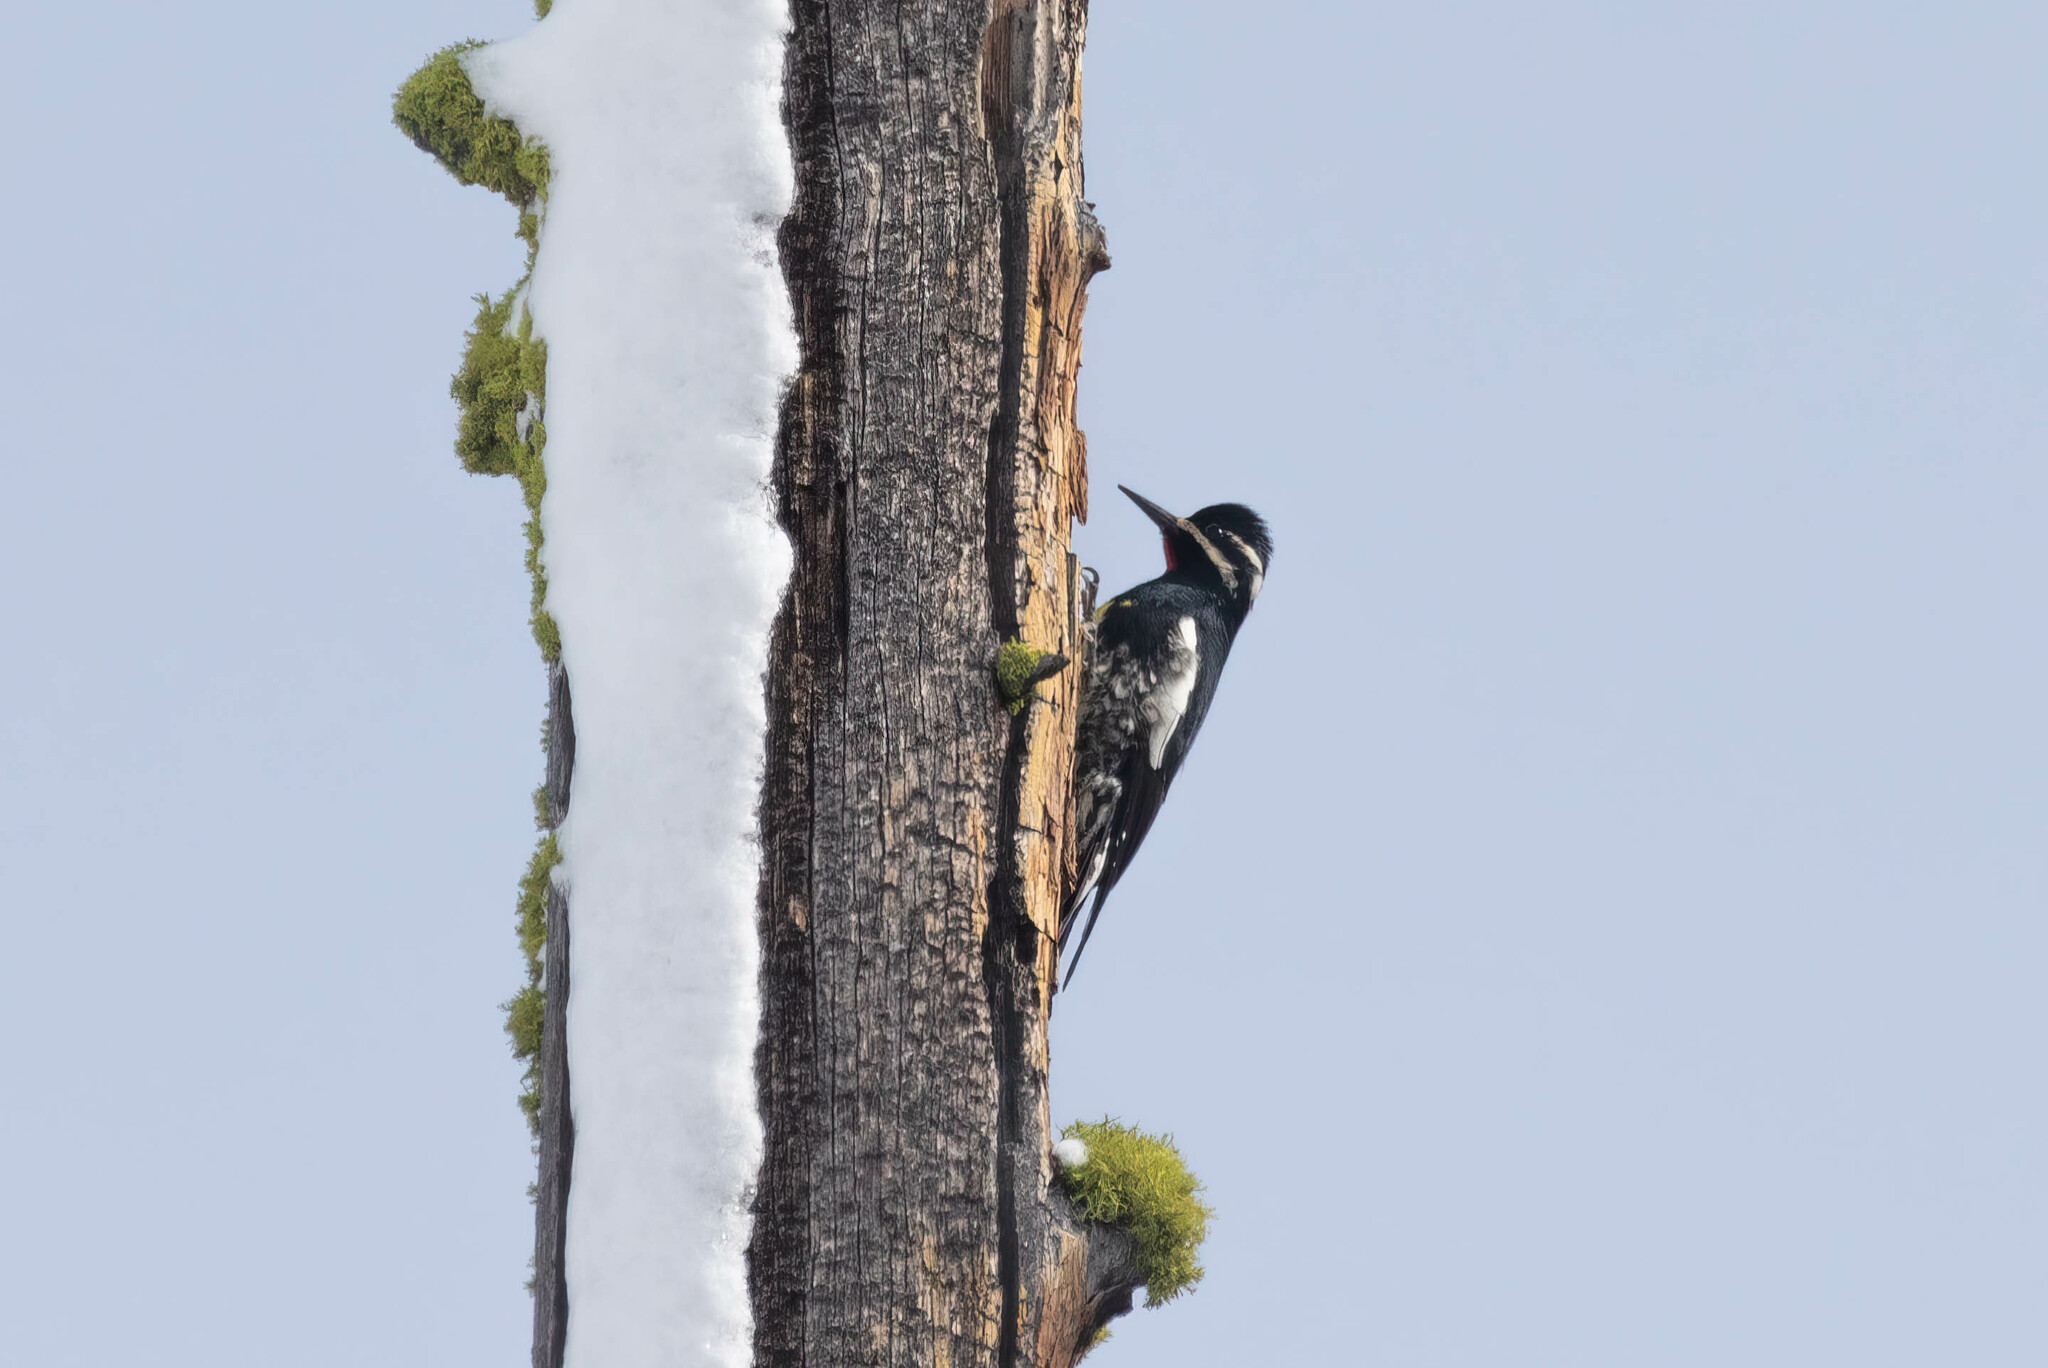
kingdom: Animalia
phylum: Chordata
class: Aves
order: Piciformes
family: Picidae
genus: Sphyrapicus
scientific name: Sphyrapicus thyroideus
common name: Williamson's sapsucker
